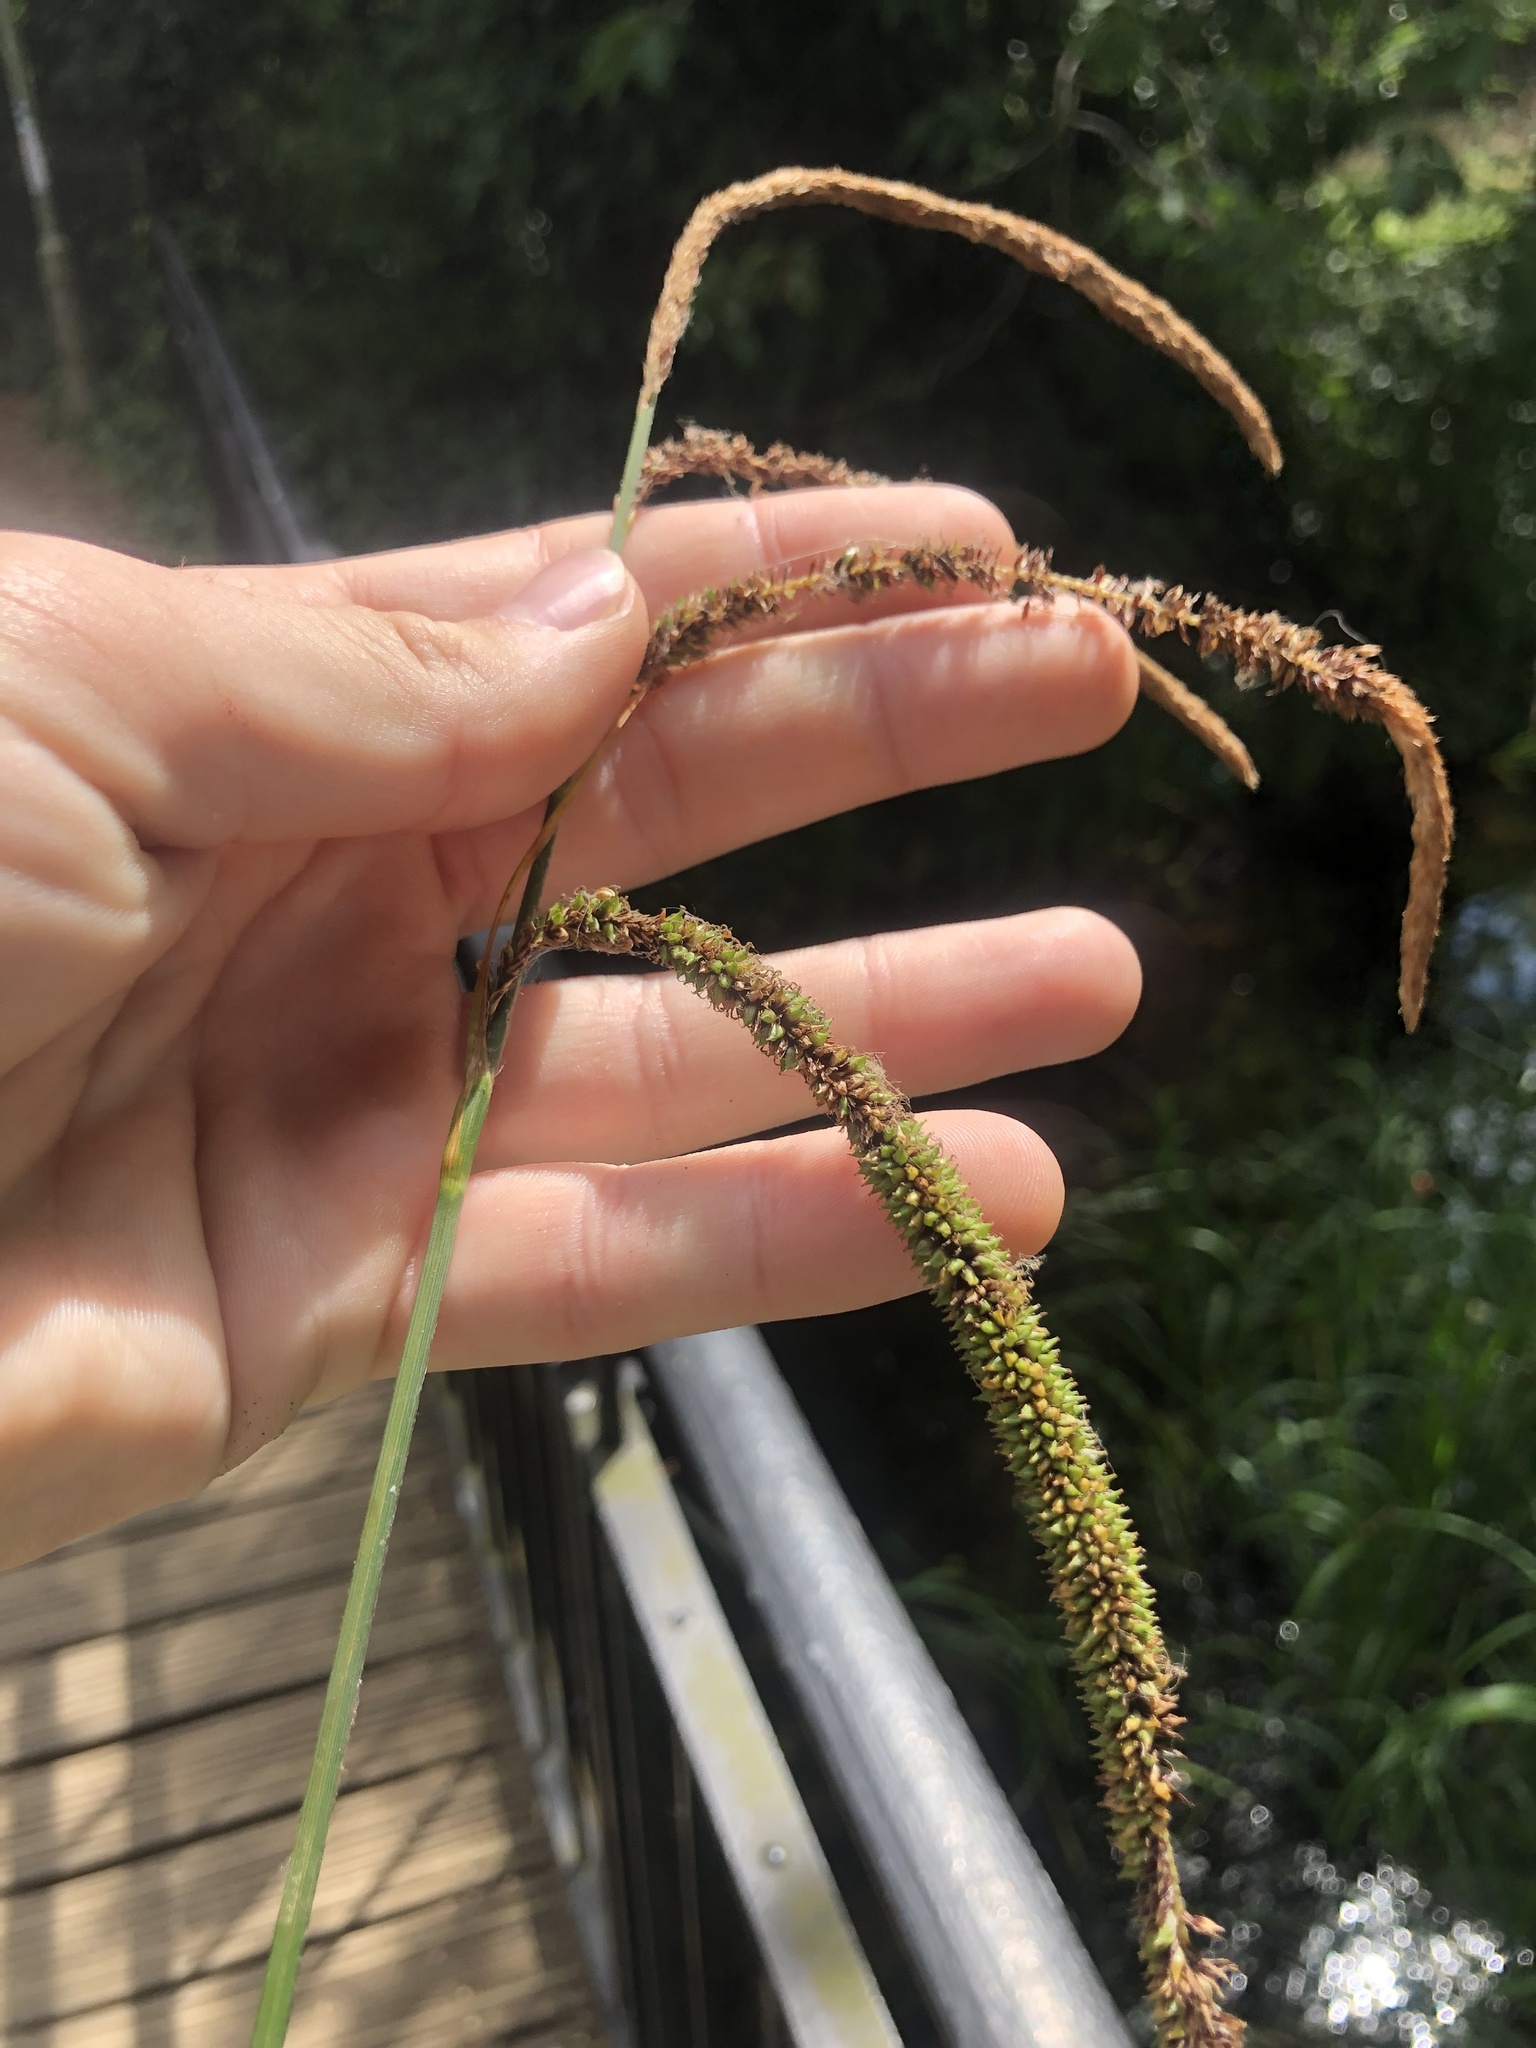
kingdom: Plantae
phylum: Tracheophyta
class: Liliopsida
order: Poales
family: Cyperaceae
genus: Carex
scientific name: Carex pendula
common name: Pendulous sedge
